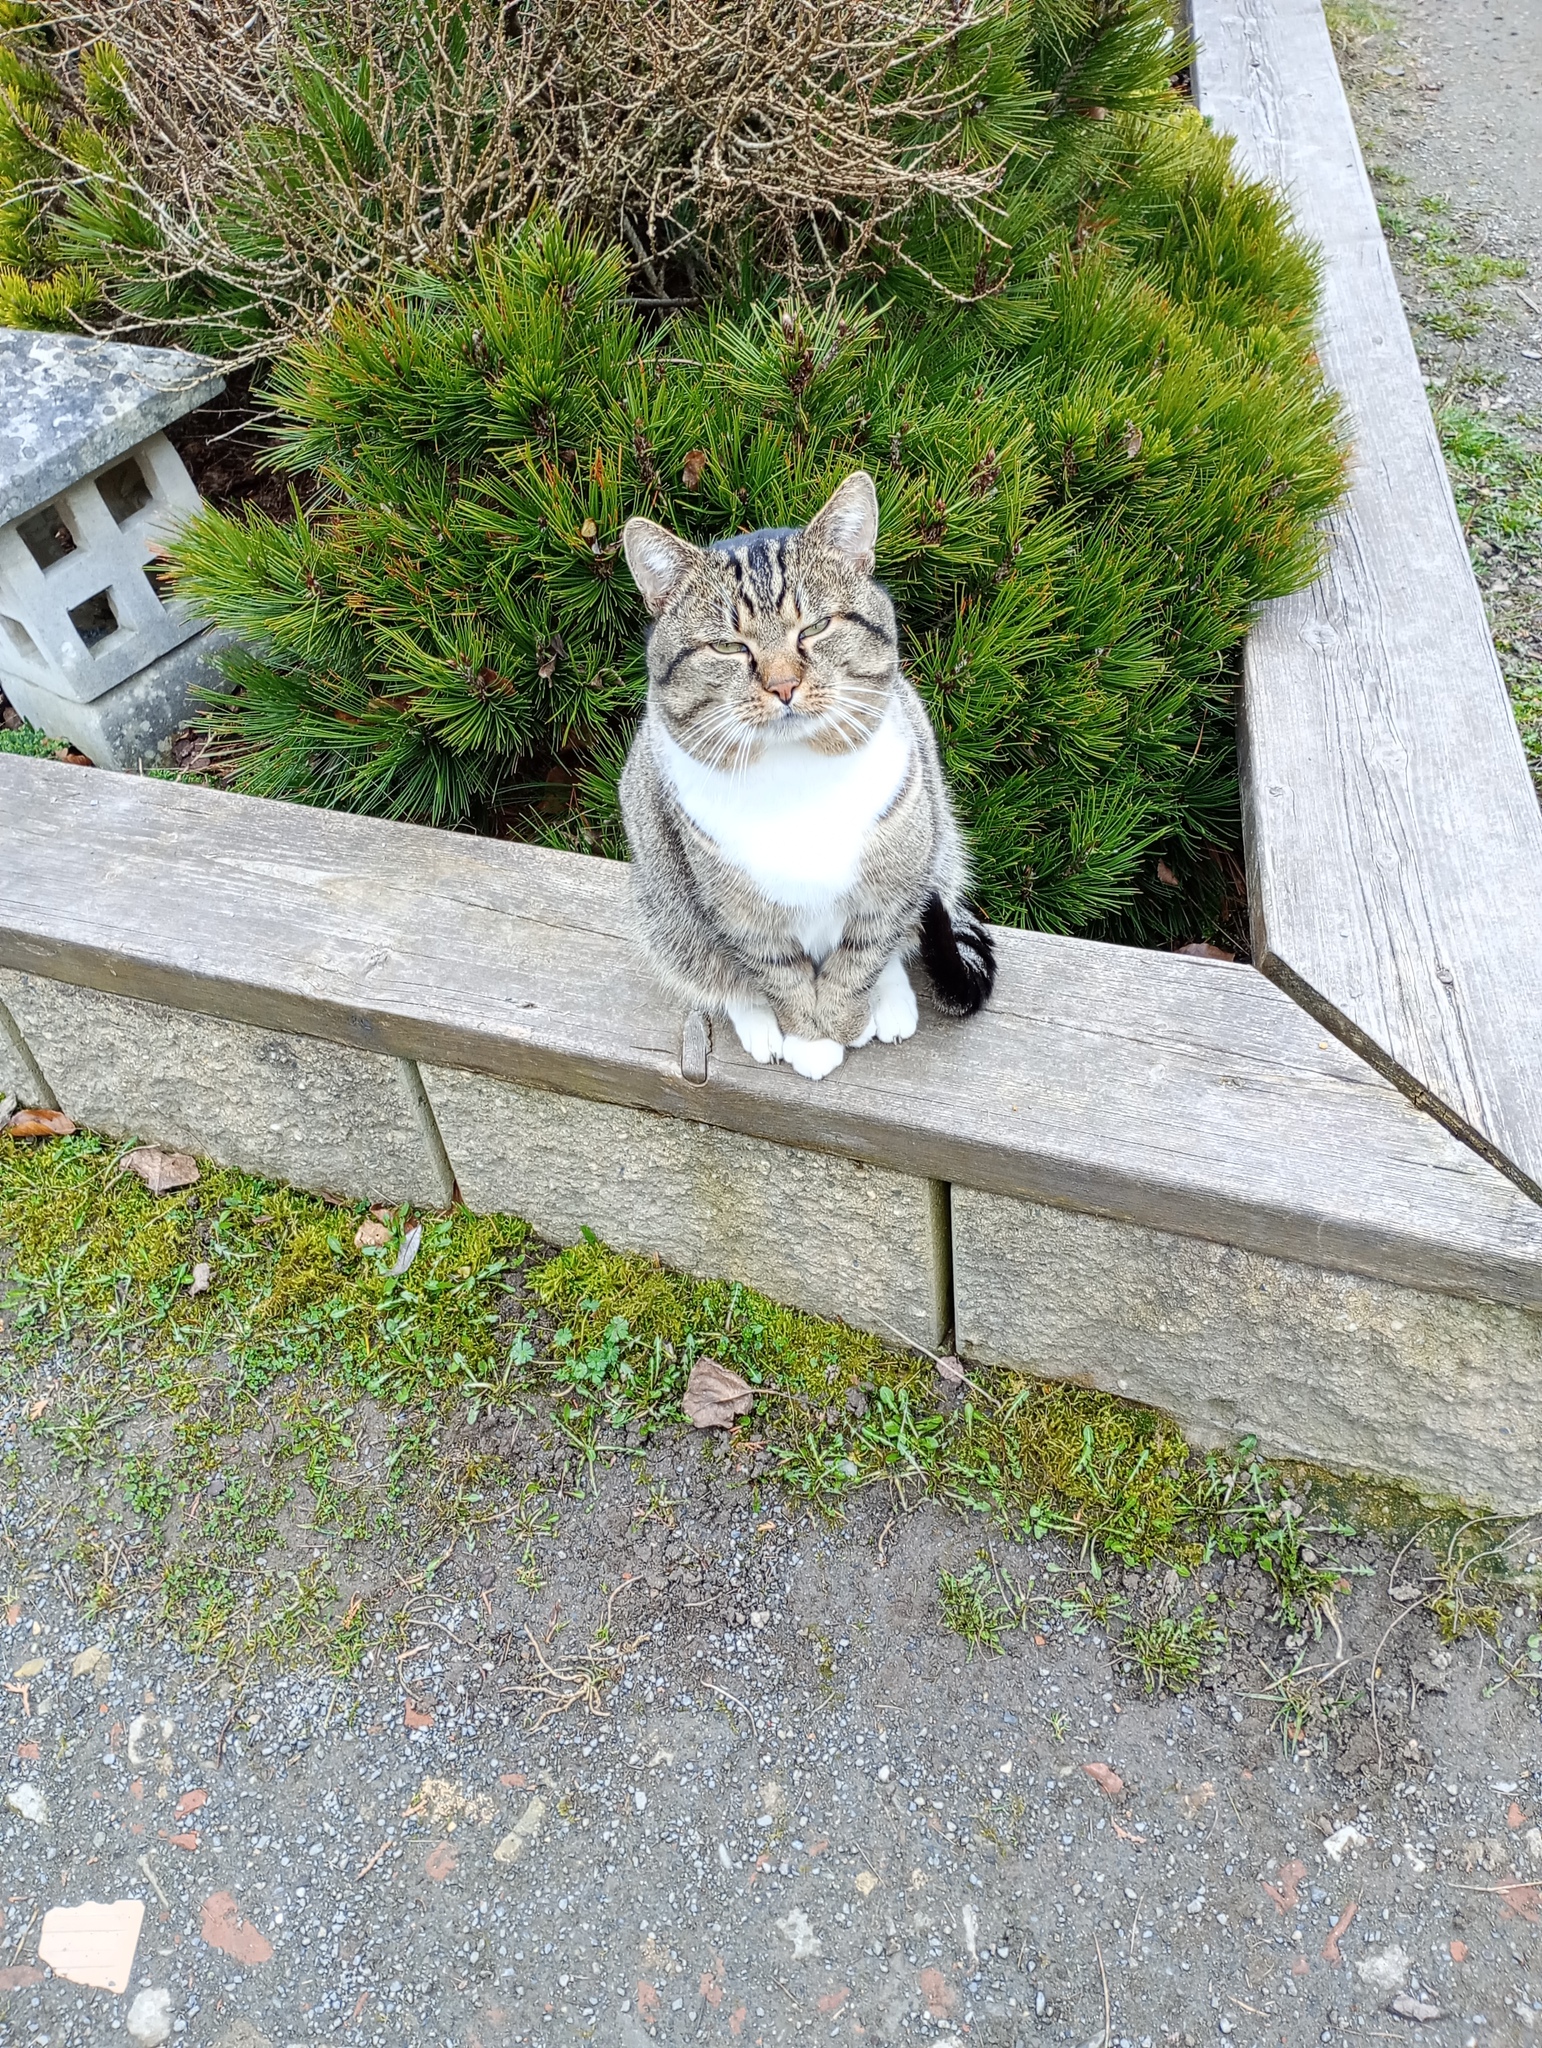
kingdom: Animalia
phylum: Chordata
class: Mammalia
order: Carnivora
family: Felidae
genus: Felis
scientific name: Felis catus
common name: Domestic cat
